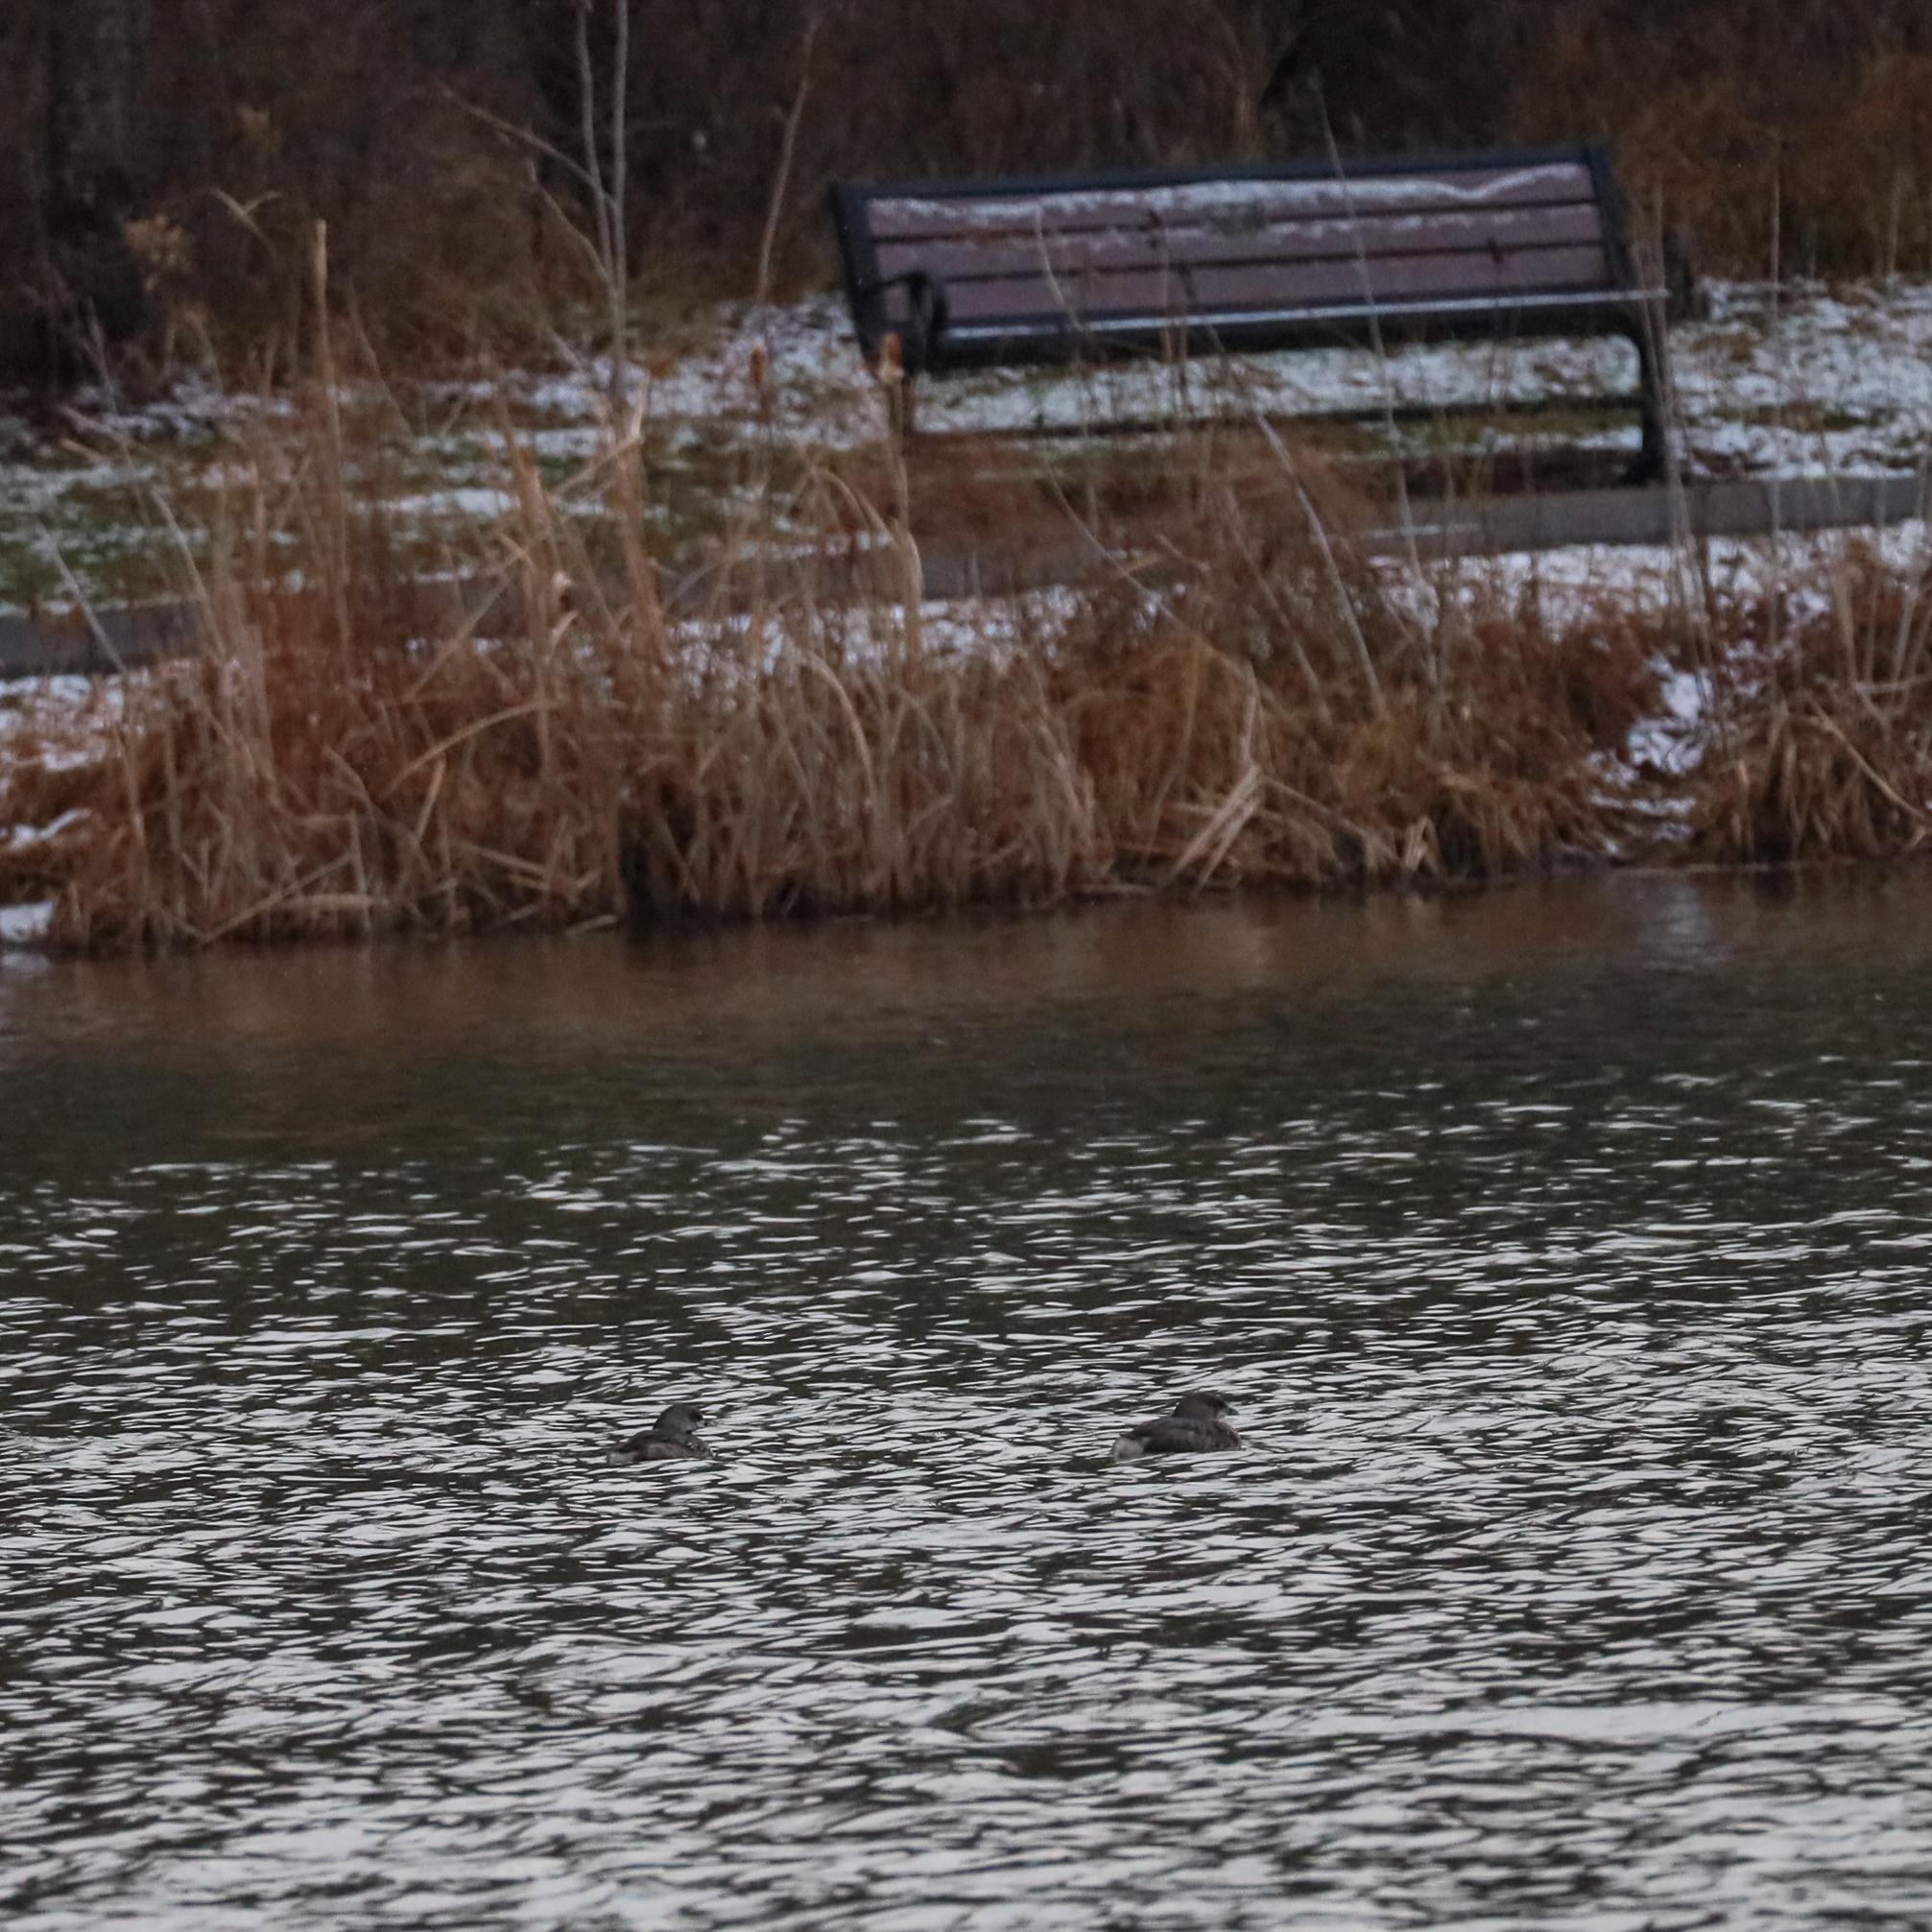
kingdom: Animalia
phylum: Chordata
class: Aves
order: Podicipediformes
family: Podicipedidae
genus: Podilymbus
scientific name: Podilymbus podiceps
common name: Pied-billed grebe
